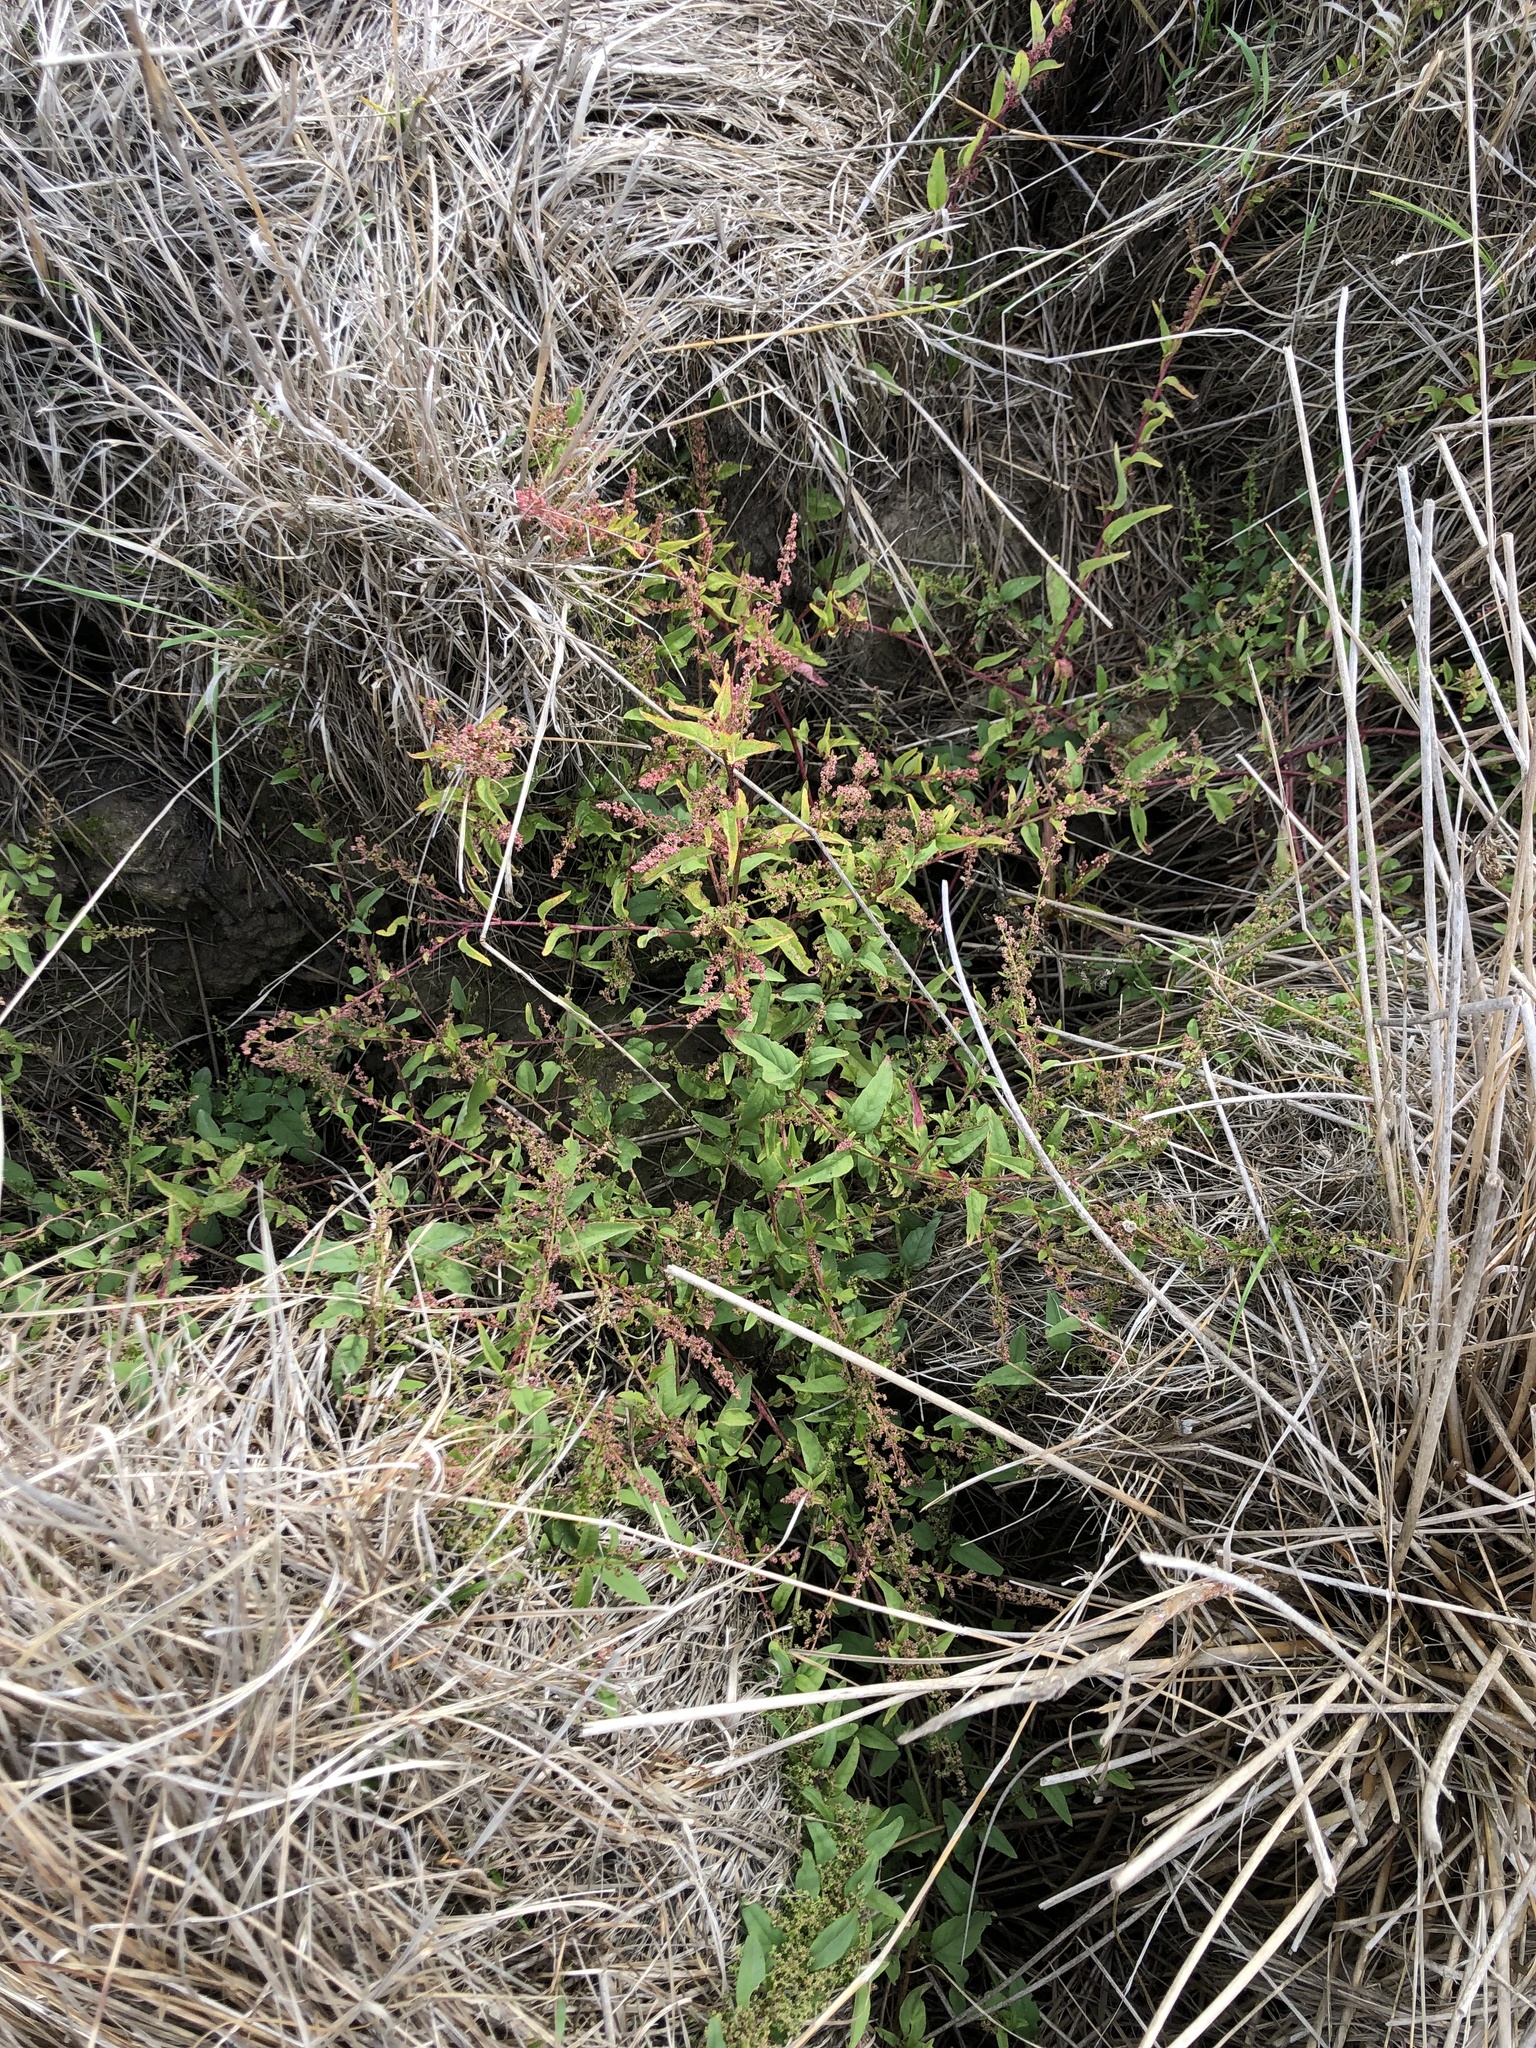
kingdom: Plantae
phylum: Tracheophyta
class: Magnoliopsida
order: Caryophyllales
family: Amaranthaceae
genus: Lipandra
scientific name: Lipandra polysperma
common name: Many-seed goosefoot
